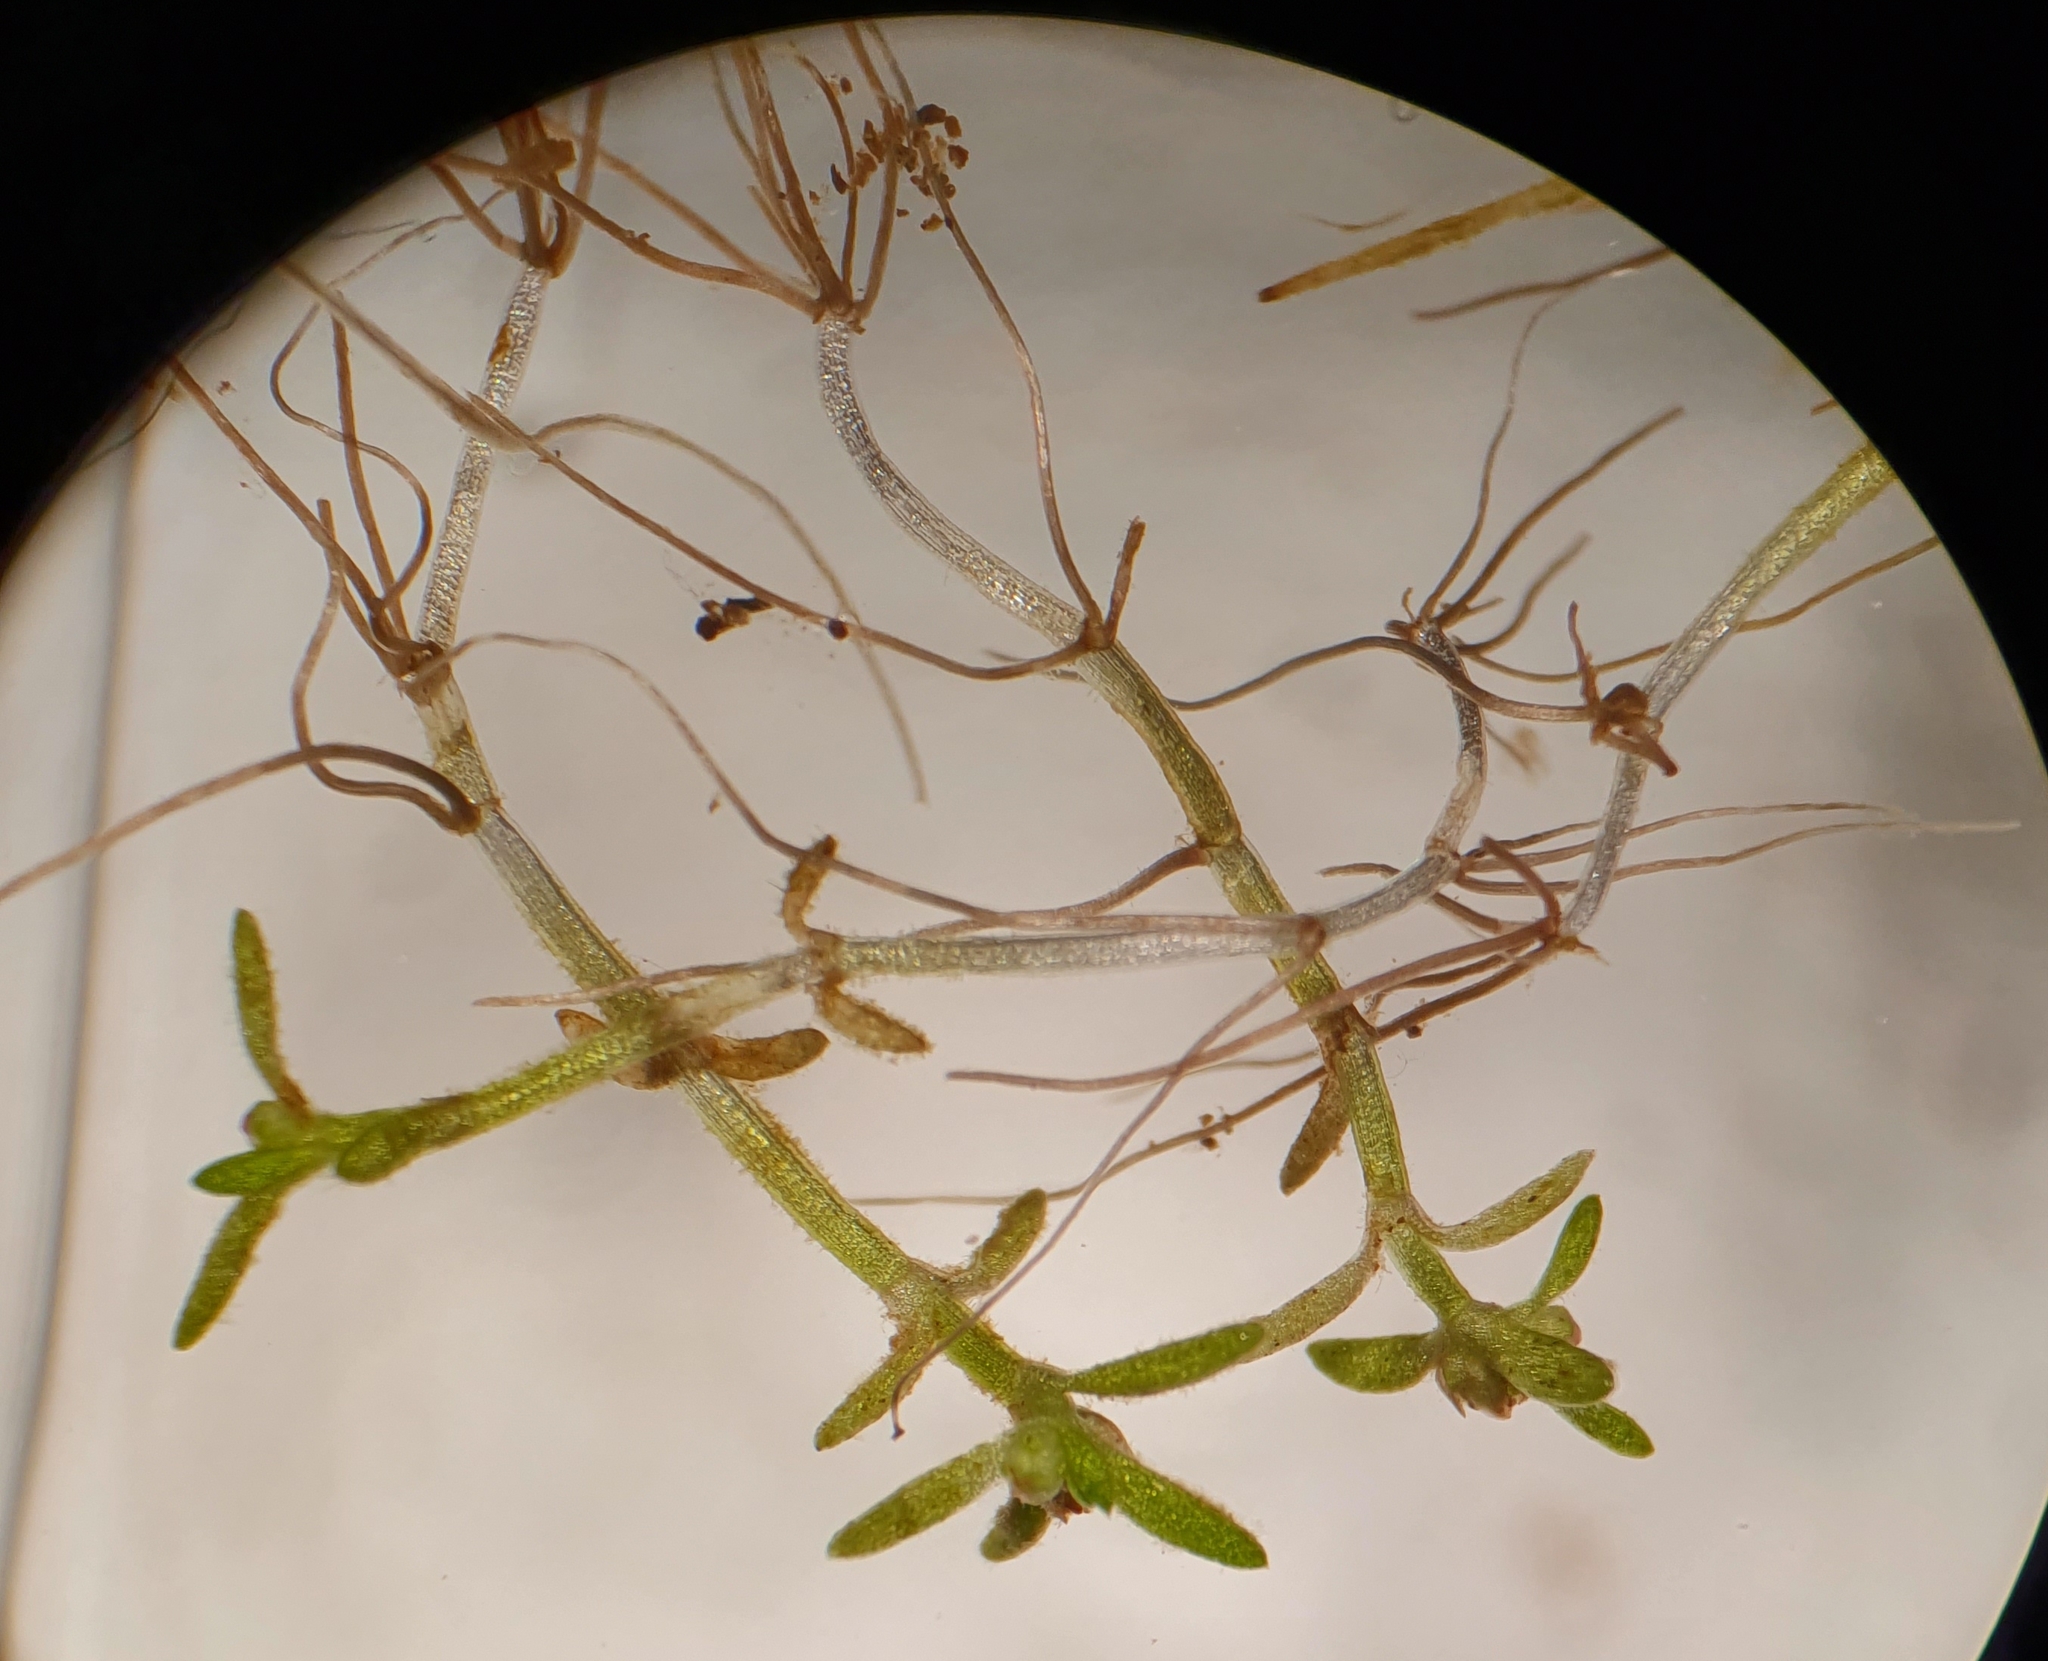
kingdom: Plantae
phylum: Tracheophyta
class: Magnoliopsida
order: Saxifragales
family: Crassulaceae
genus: Crassula
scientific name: Crassula aquatica
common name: Pigmyweed
